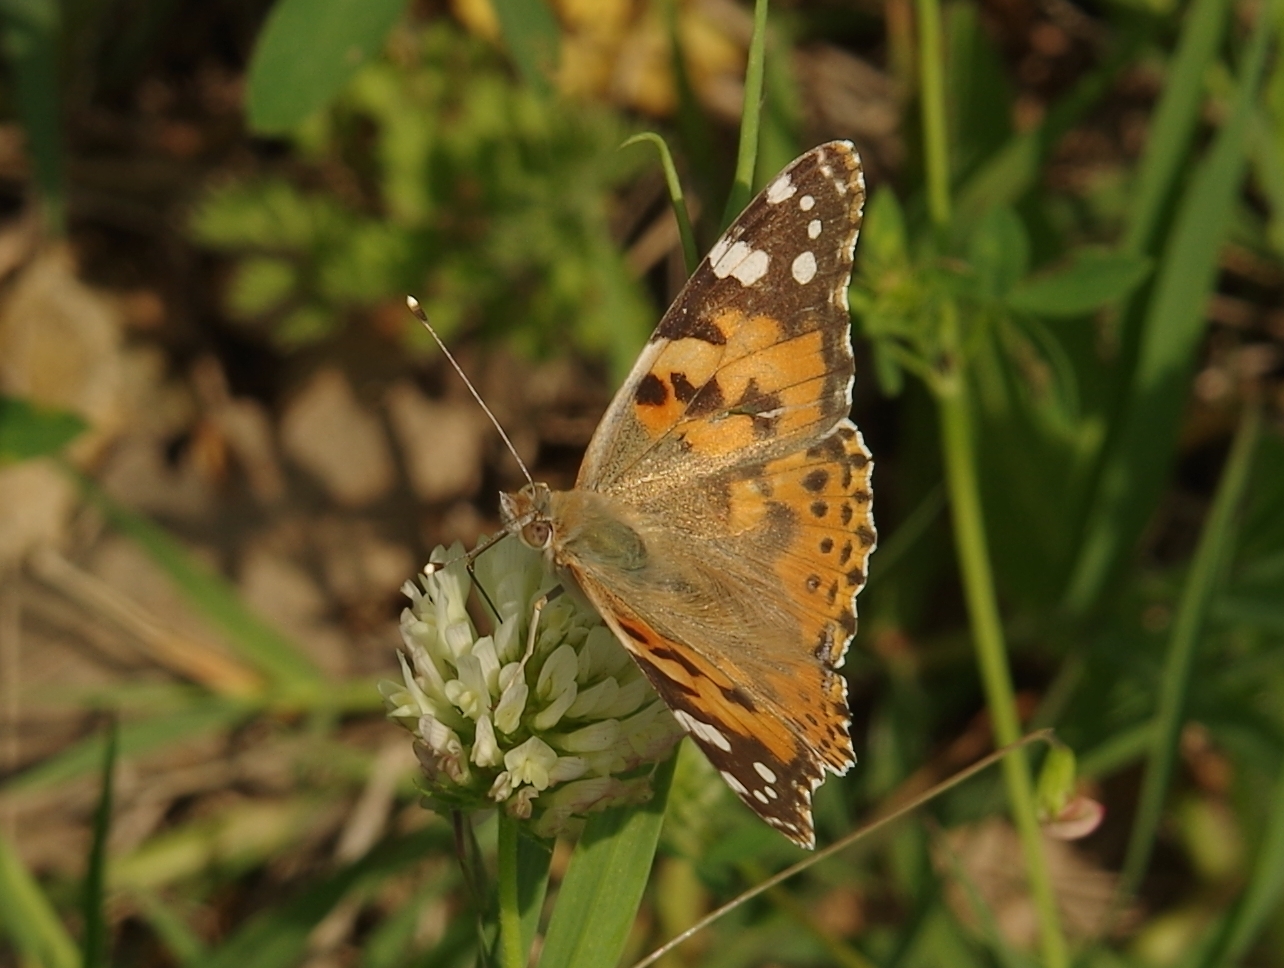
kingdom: Animalia
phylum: Arthropoda
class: Insecta
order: Lepidoptera
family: Nymphalidae
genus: Vanessa
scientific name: Vanessa cardui
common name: Painted lady
